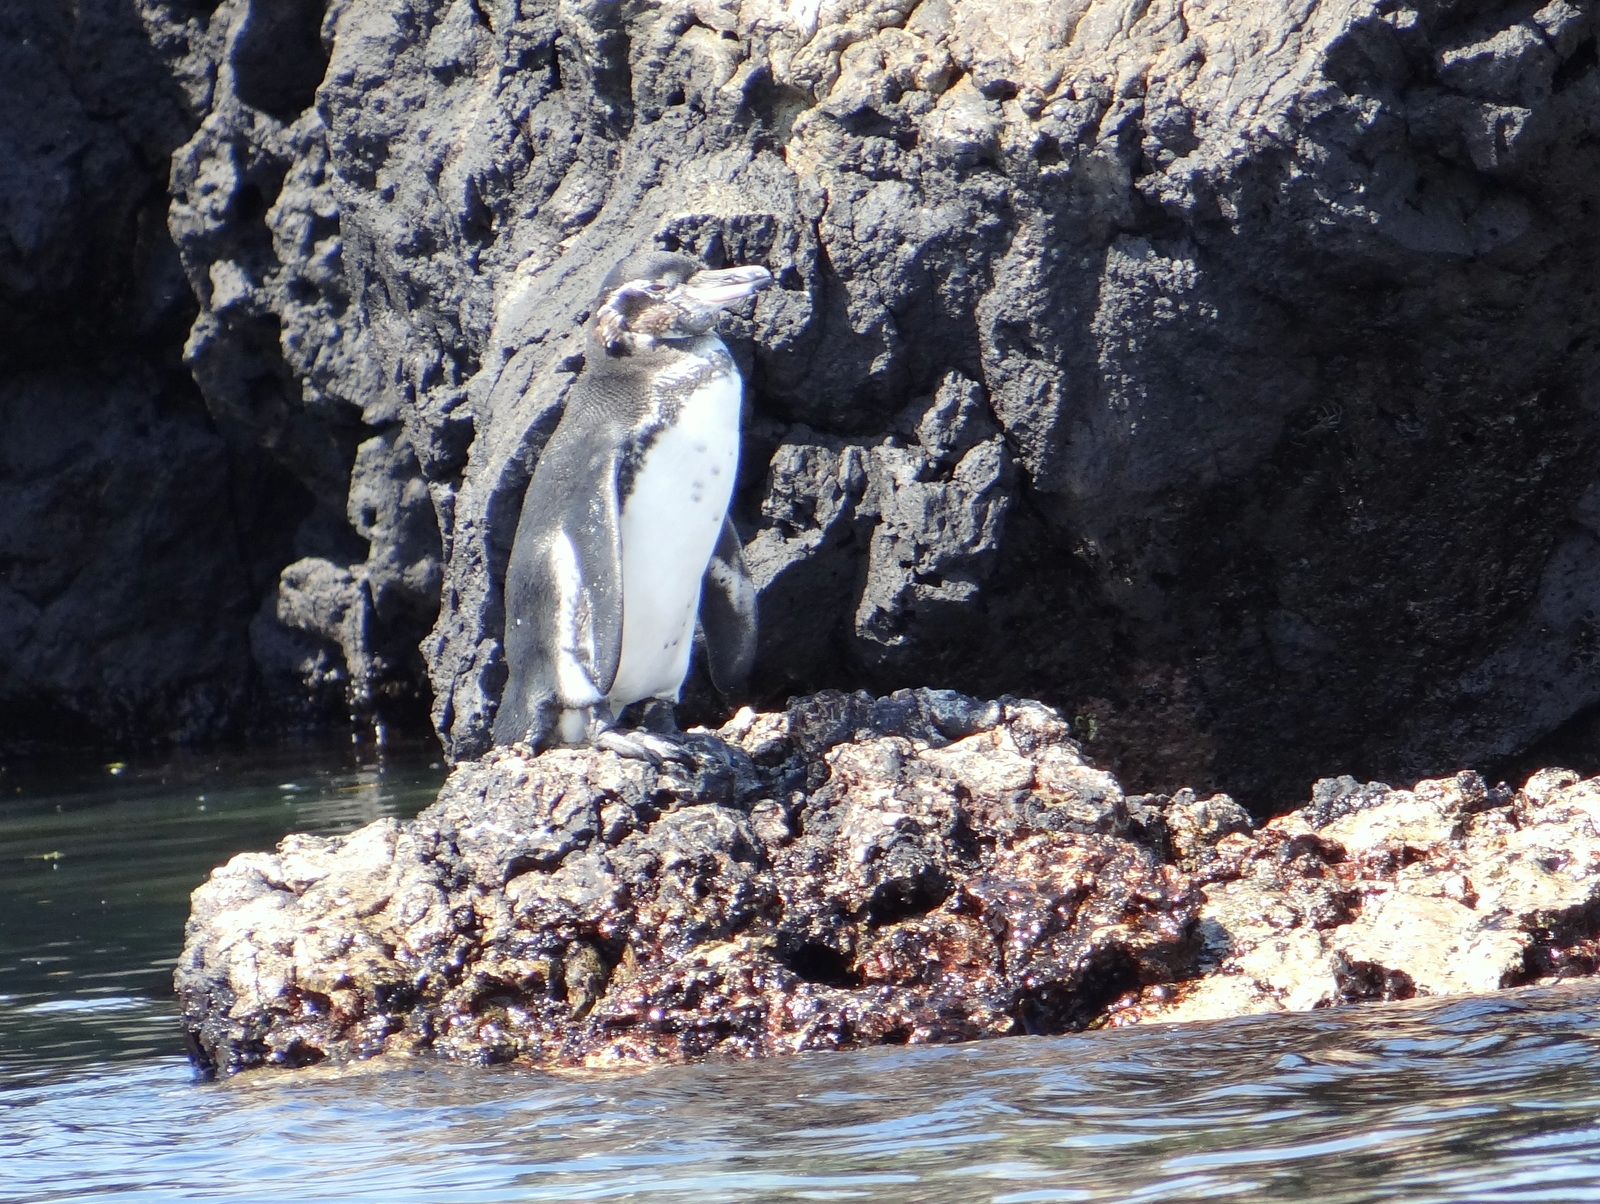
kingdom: Animalia
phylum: Chordata
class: Aves
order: Sphenisciformes
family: Spheniscidae
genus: Spheniscus
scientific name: Spheniscus mendiculus
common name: Galapagos penguin
